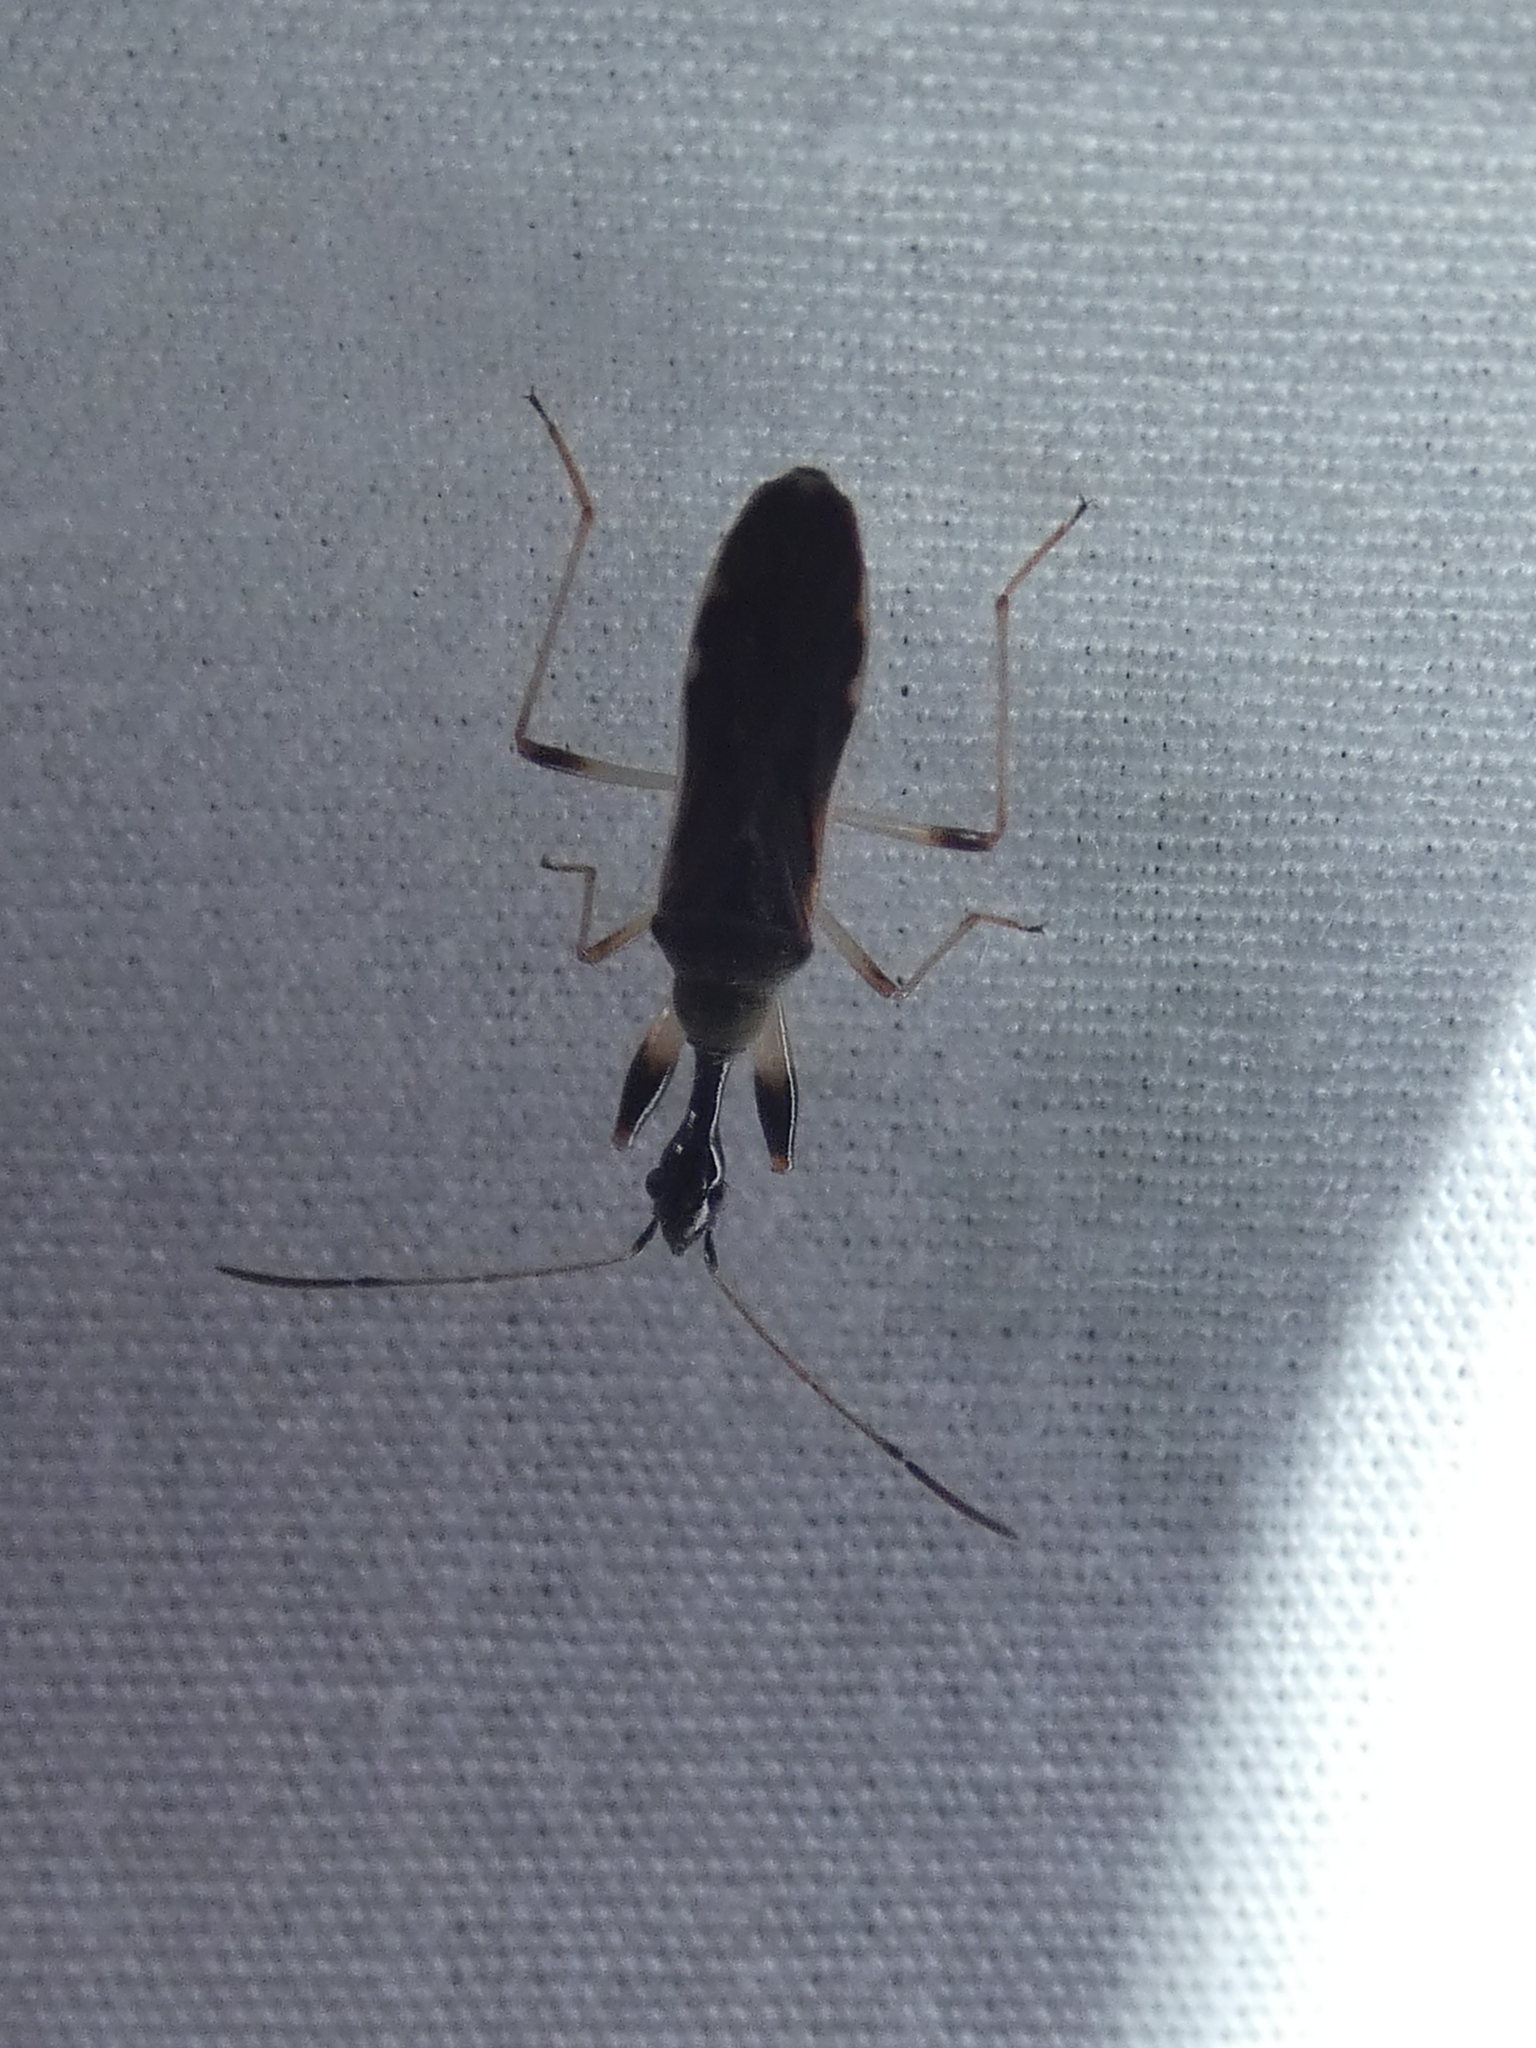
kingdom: Animalia
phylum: Arthropoda
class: Insecta
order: Hemiptera
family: Rhyparochromidae
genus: Myodocha
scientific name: Myodocha serripes
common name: Long-necked seed bug
